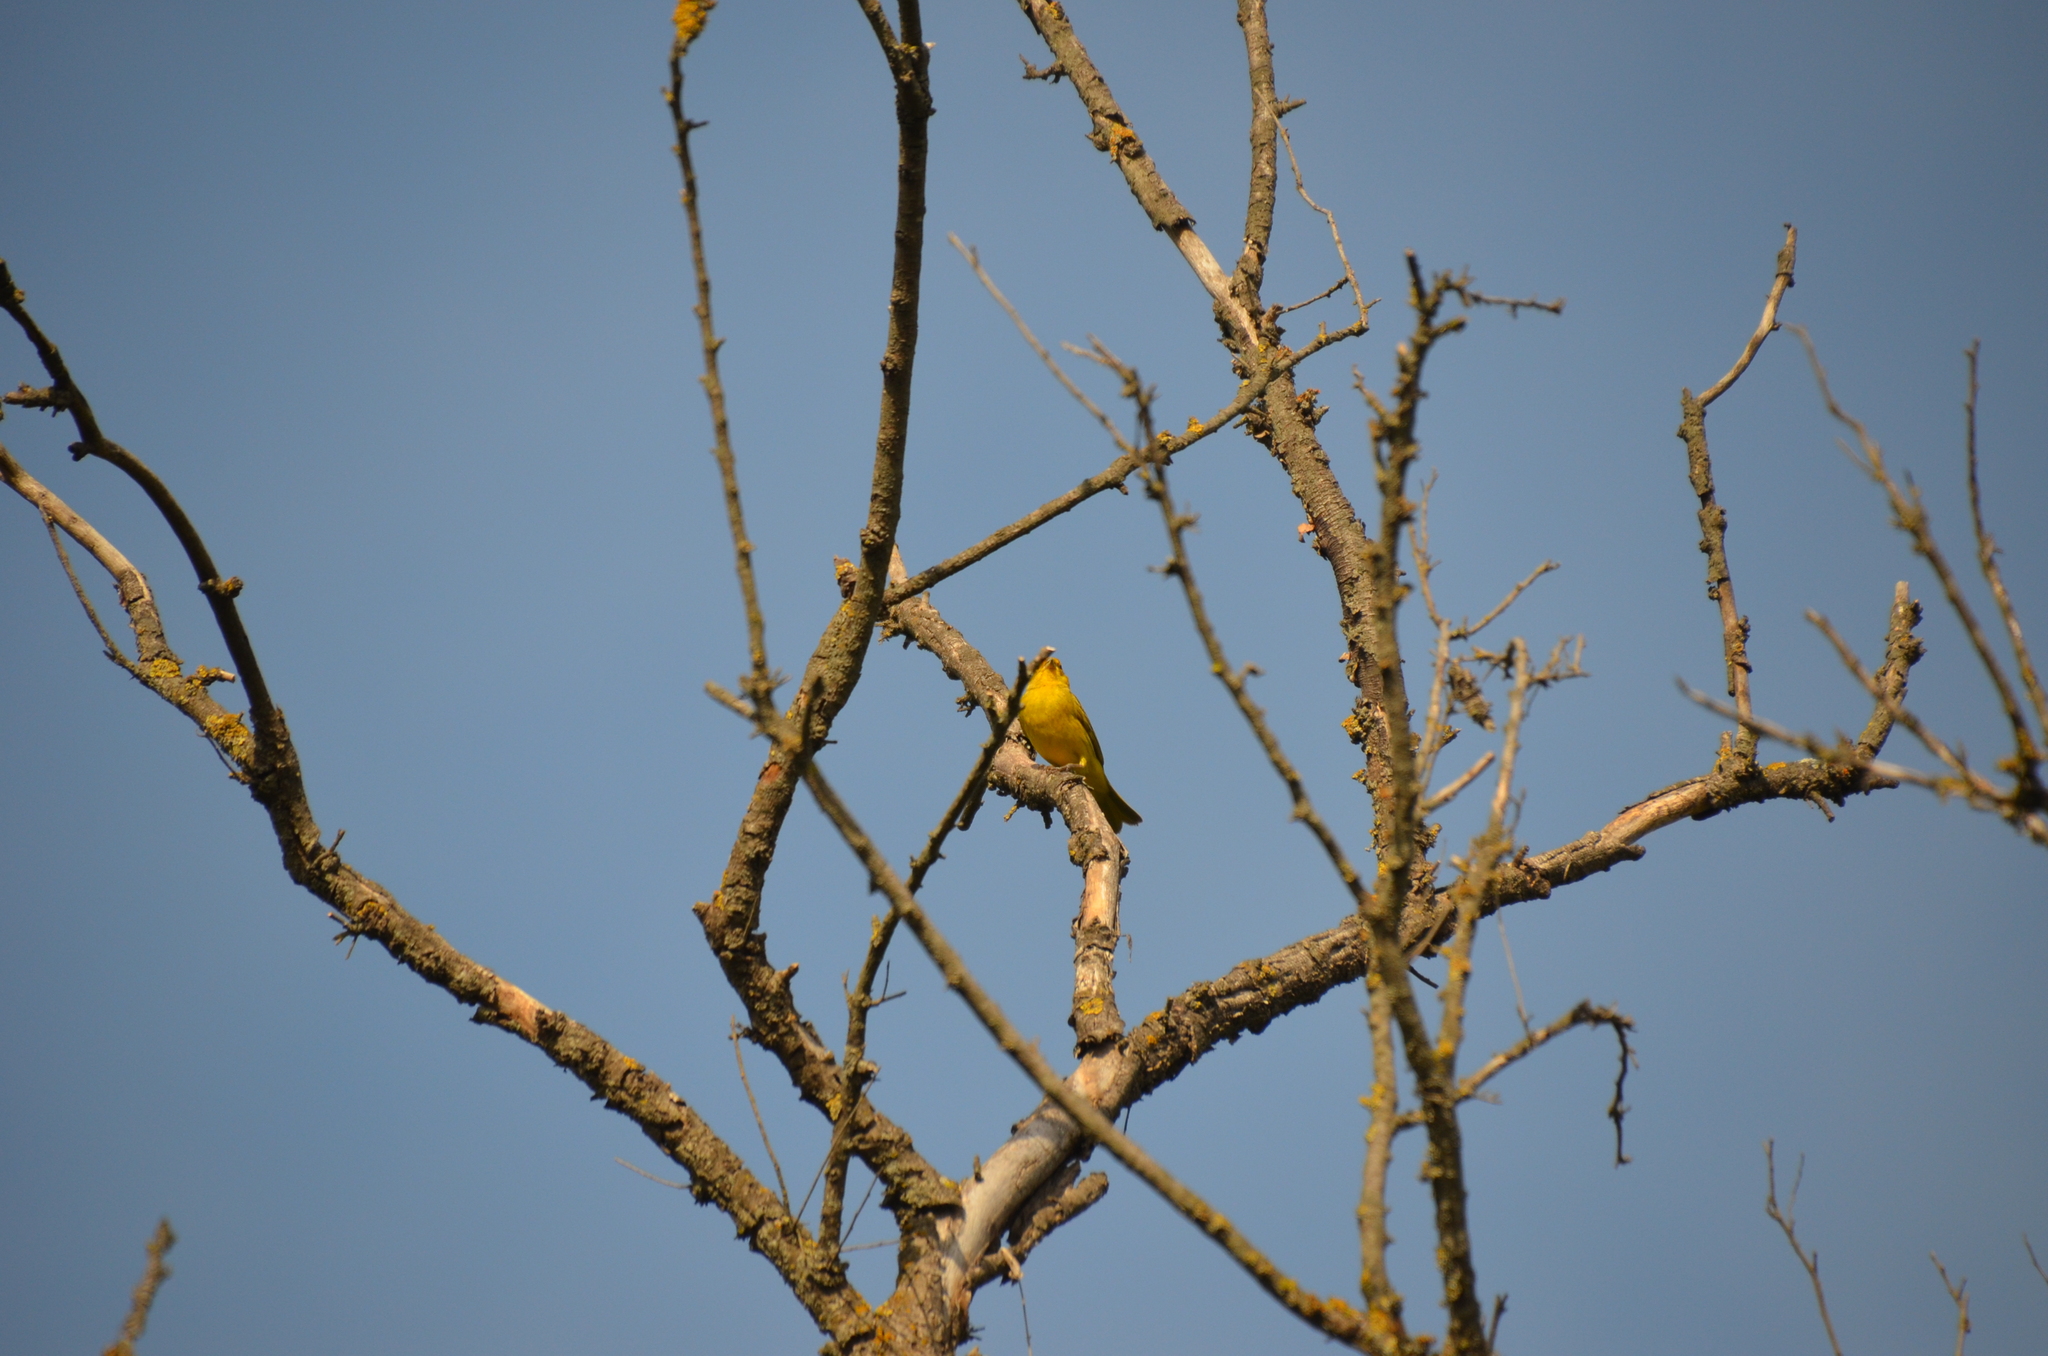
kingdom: Animalia
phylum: Chordata
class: Aves
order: Passeriformes
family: Thraupidae
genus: Sicalis
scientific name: Sicalis flaveola
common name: Saffron finch
